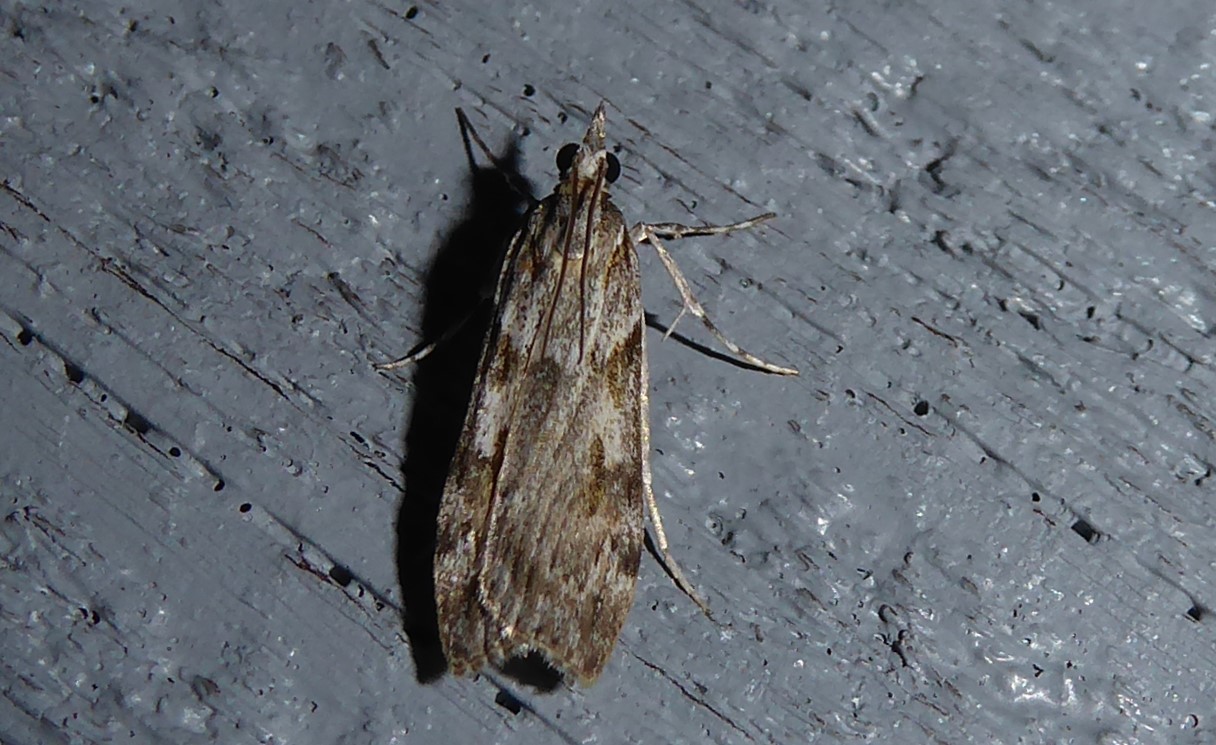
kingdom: Animalia
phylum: Arthropoda
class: Insecta
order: Lepidoptera
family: Crambidae
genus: Scoparia
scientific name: Scoparia halopis
